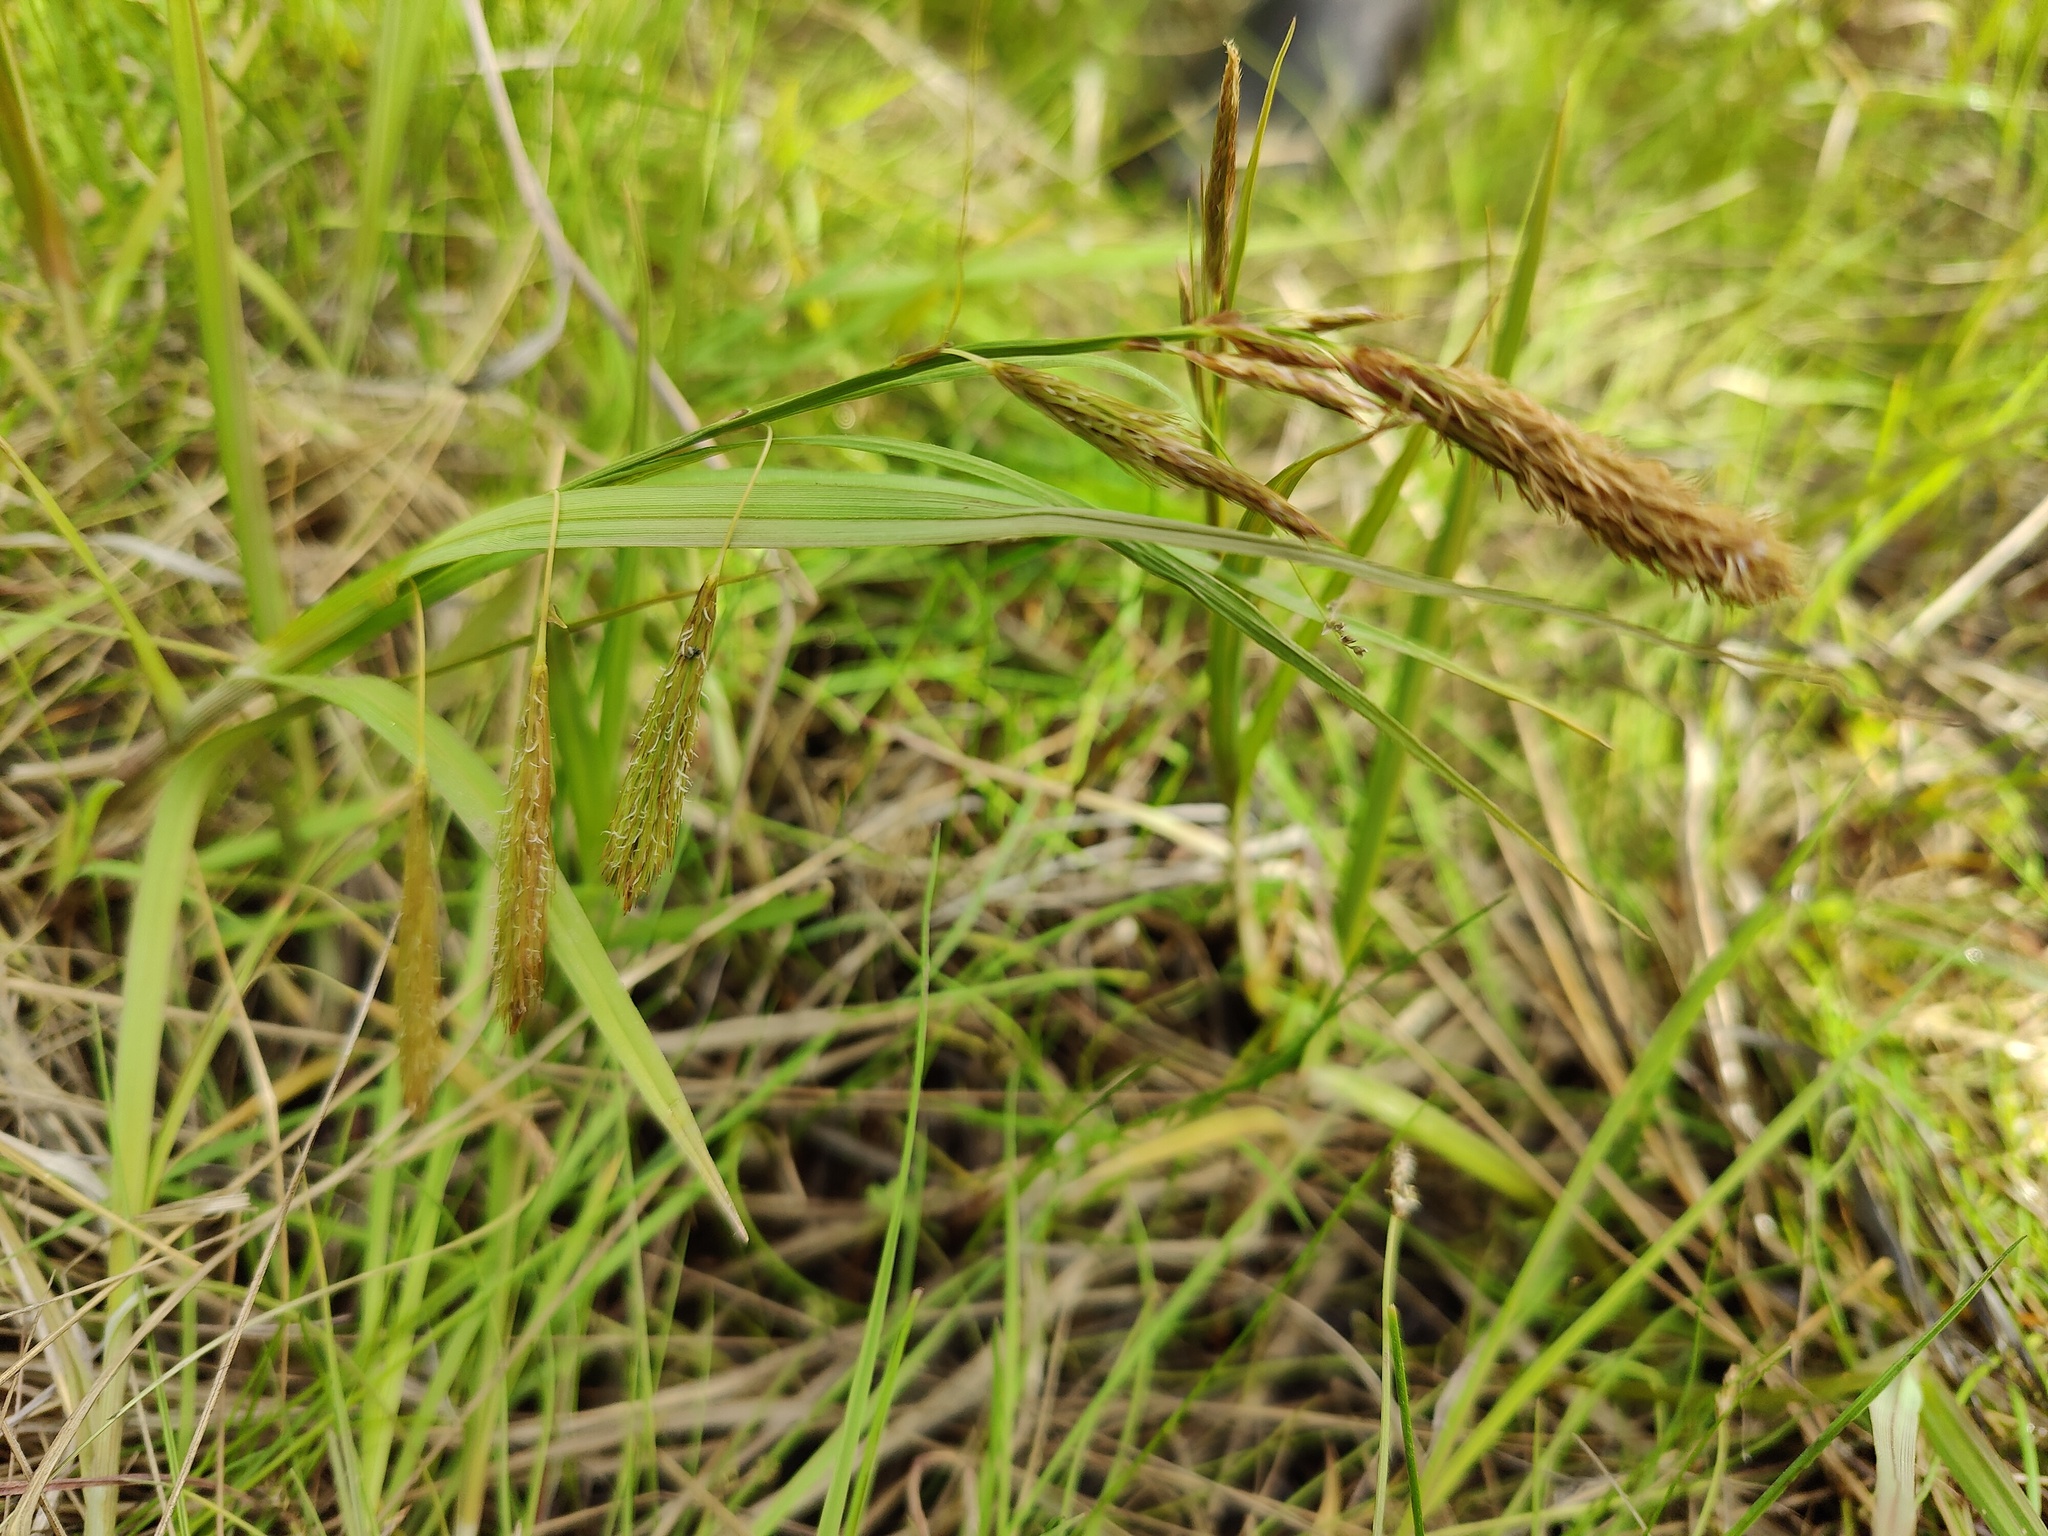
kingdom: Plantae
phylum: Tracheophyta
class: Liliopsida
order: Poales
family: Cyperaceae
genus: Carex
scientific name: Carex paleacea
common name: Chaffy sedge
